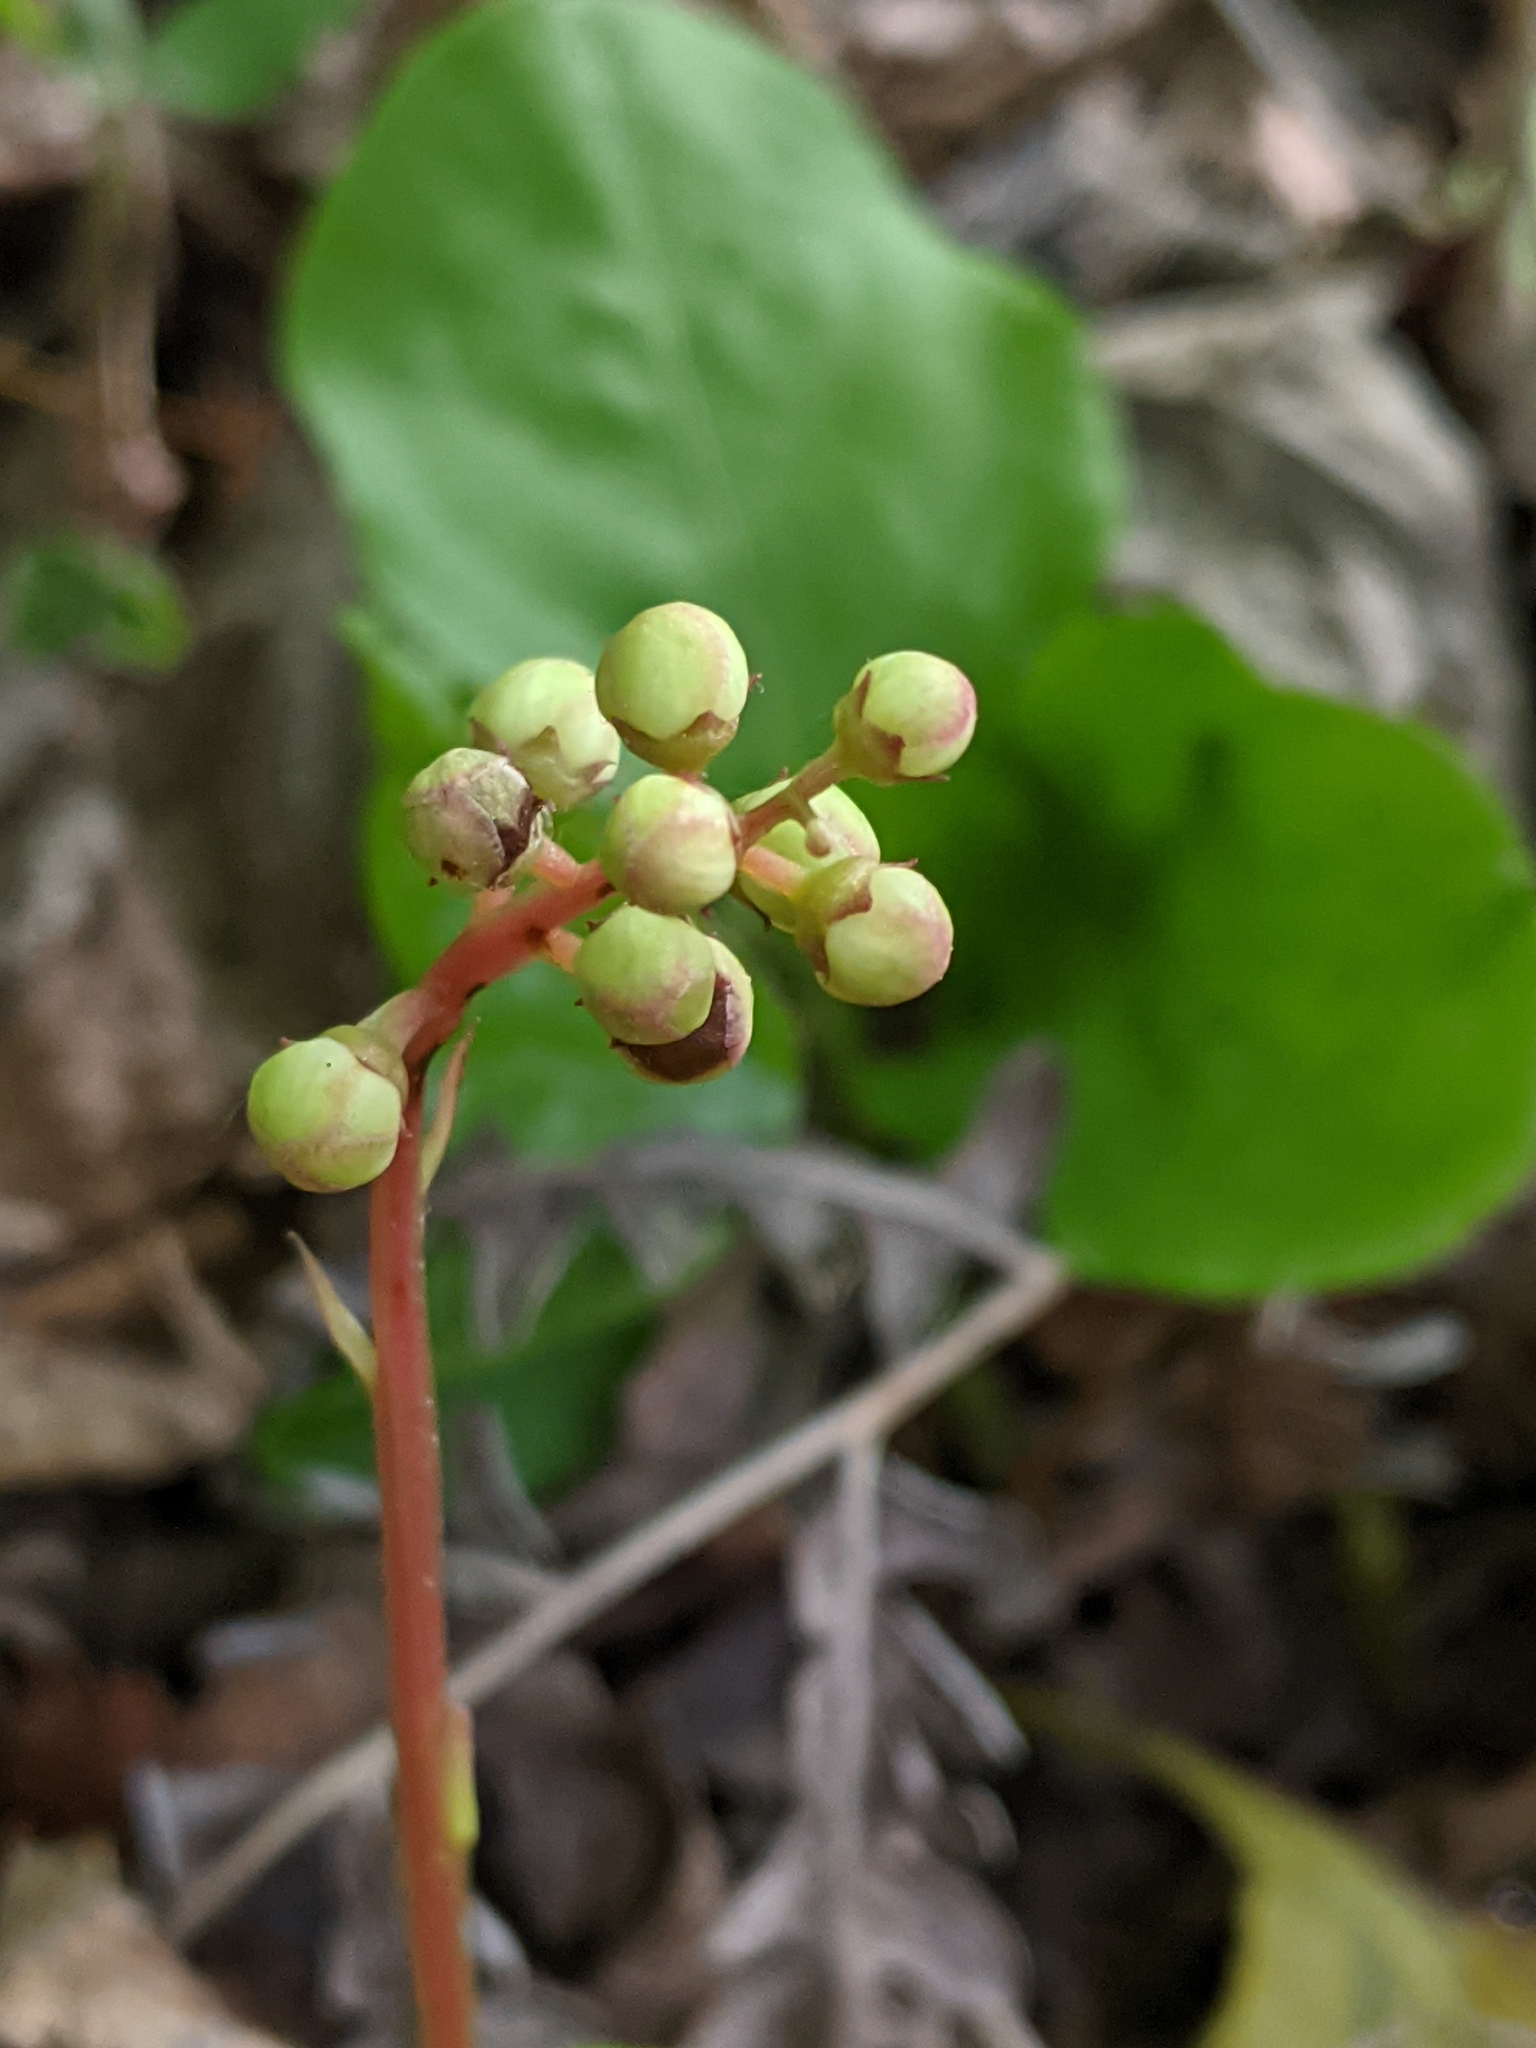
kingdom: Plantae
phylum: Tracheophyta
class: Magnoliopsida
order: Ericales
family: Ericaceae
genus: Pyrola
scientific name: Pyrola elliptica
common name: Shinleaf
